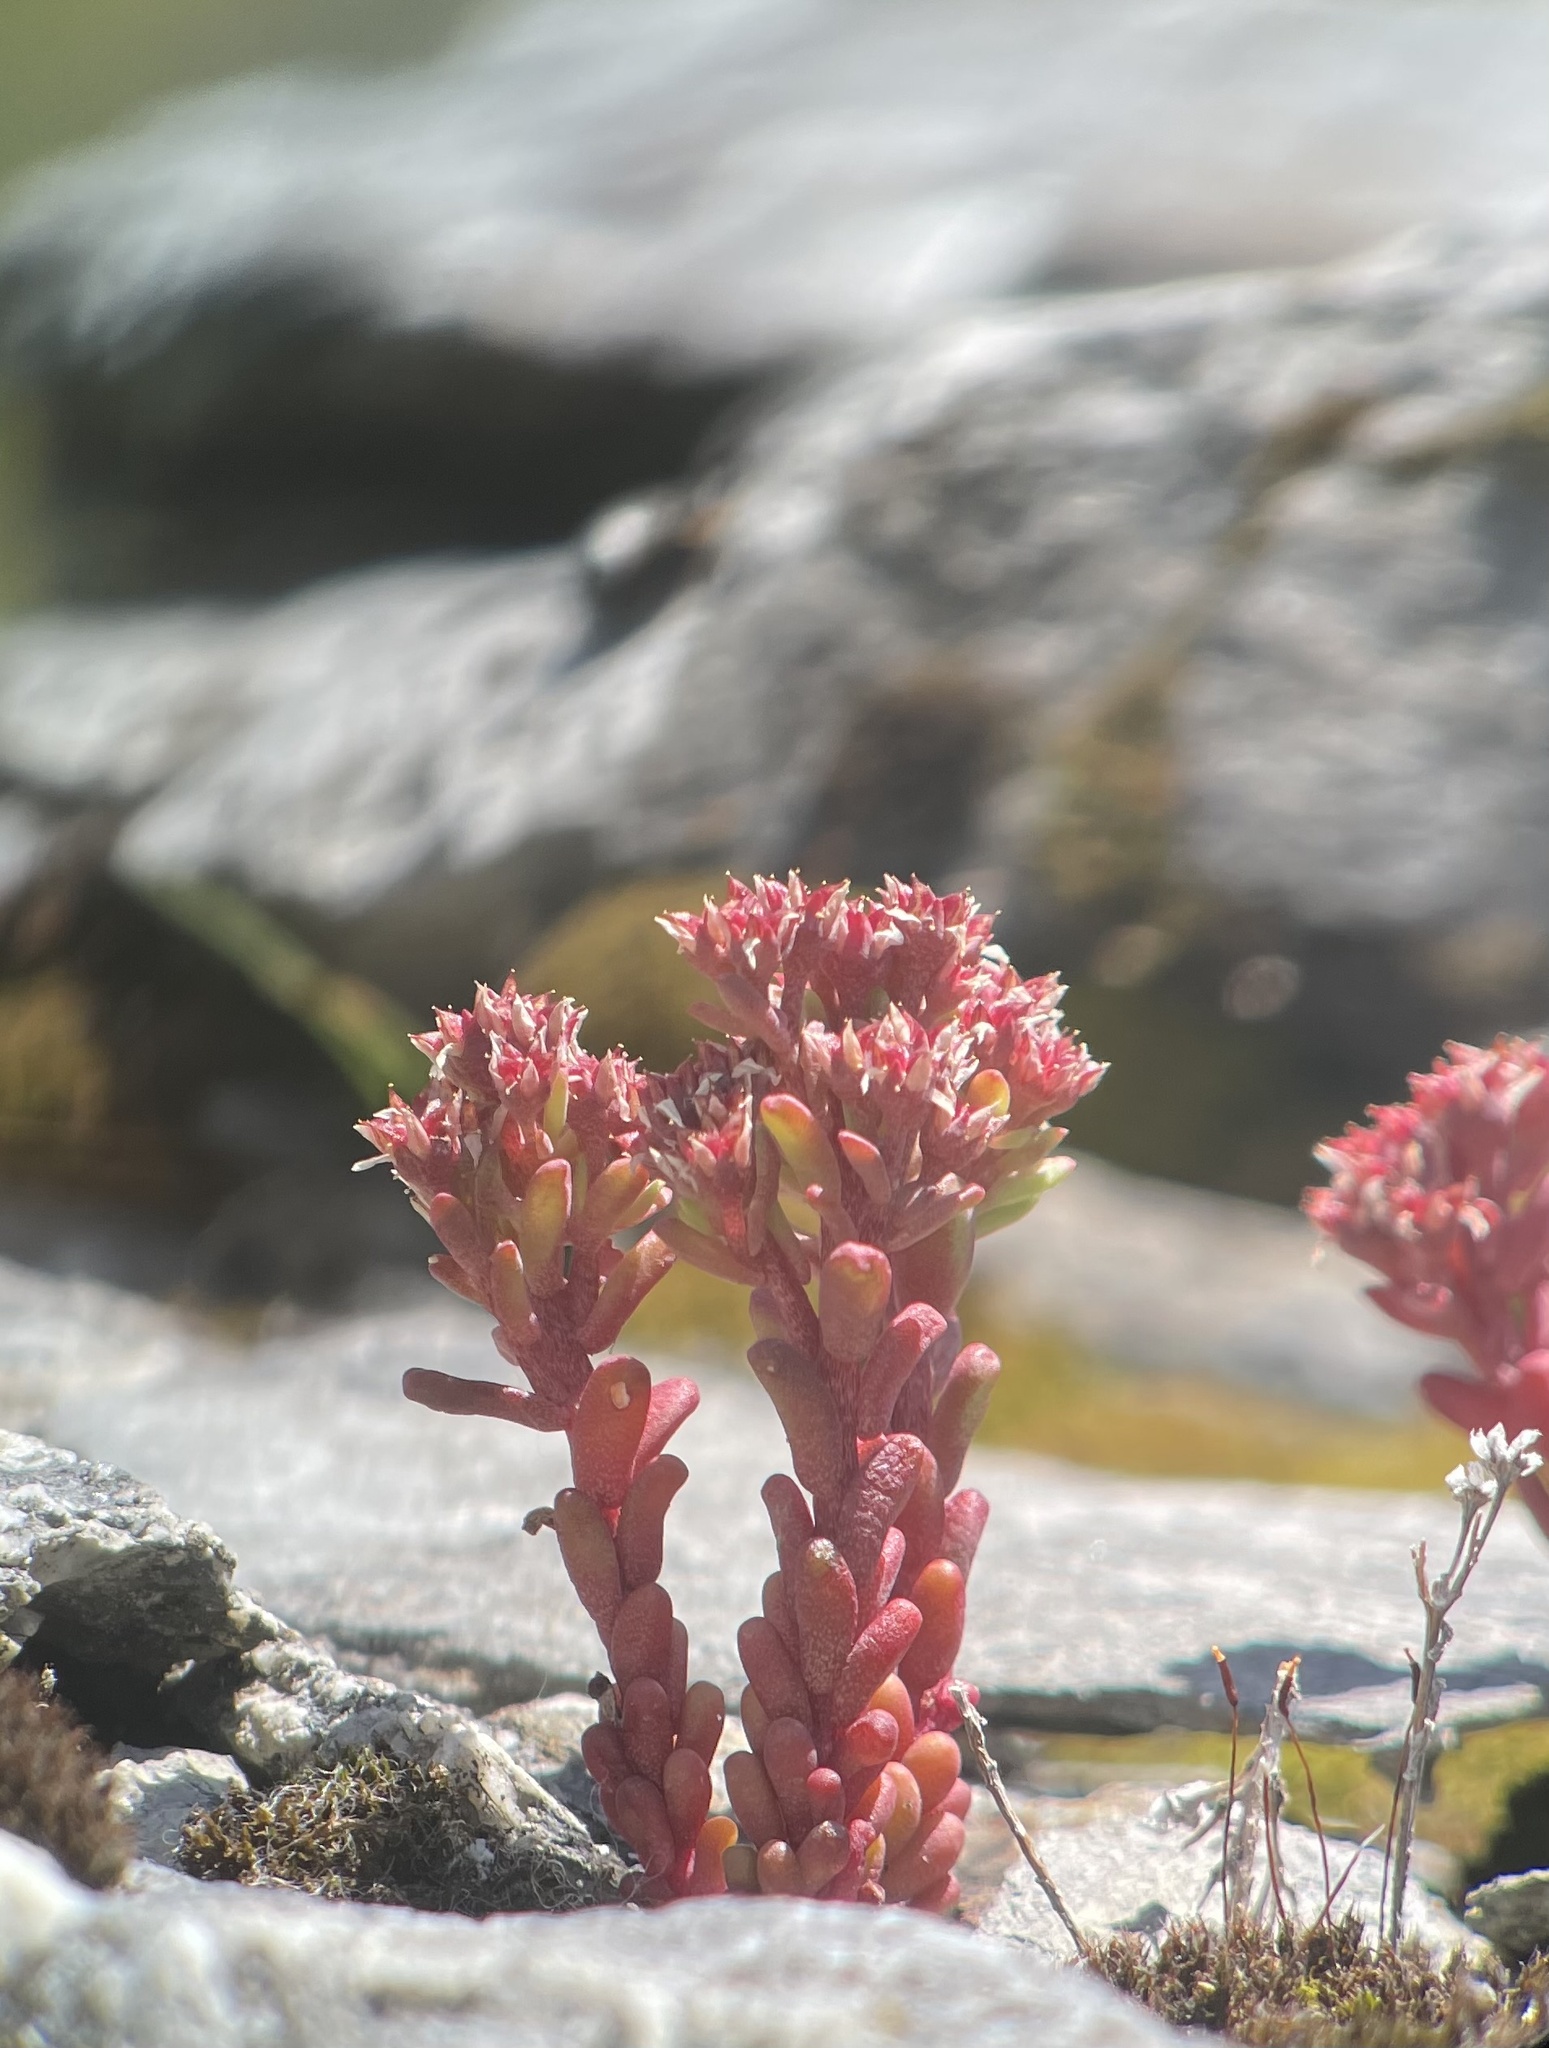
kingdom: Plantae
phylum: Tracheophyta
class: Magnoliopsida
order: Saxifragales
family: Crassulaceae
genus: Sedum
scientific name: Sedum atratum
